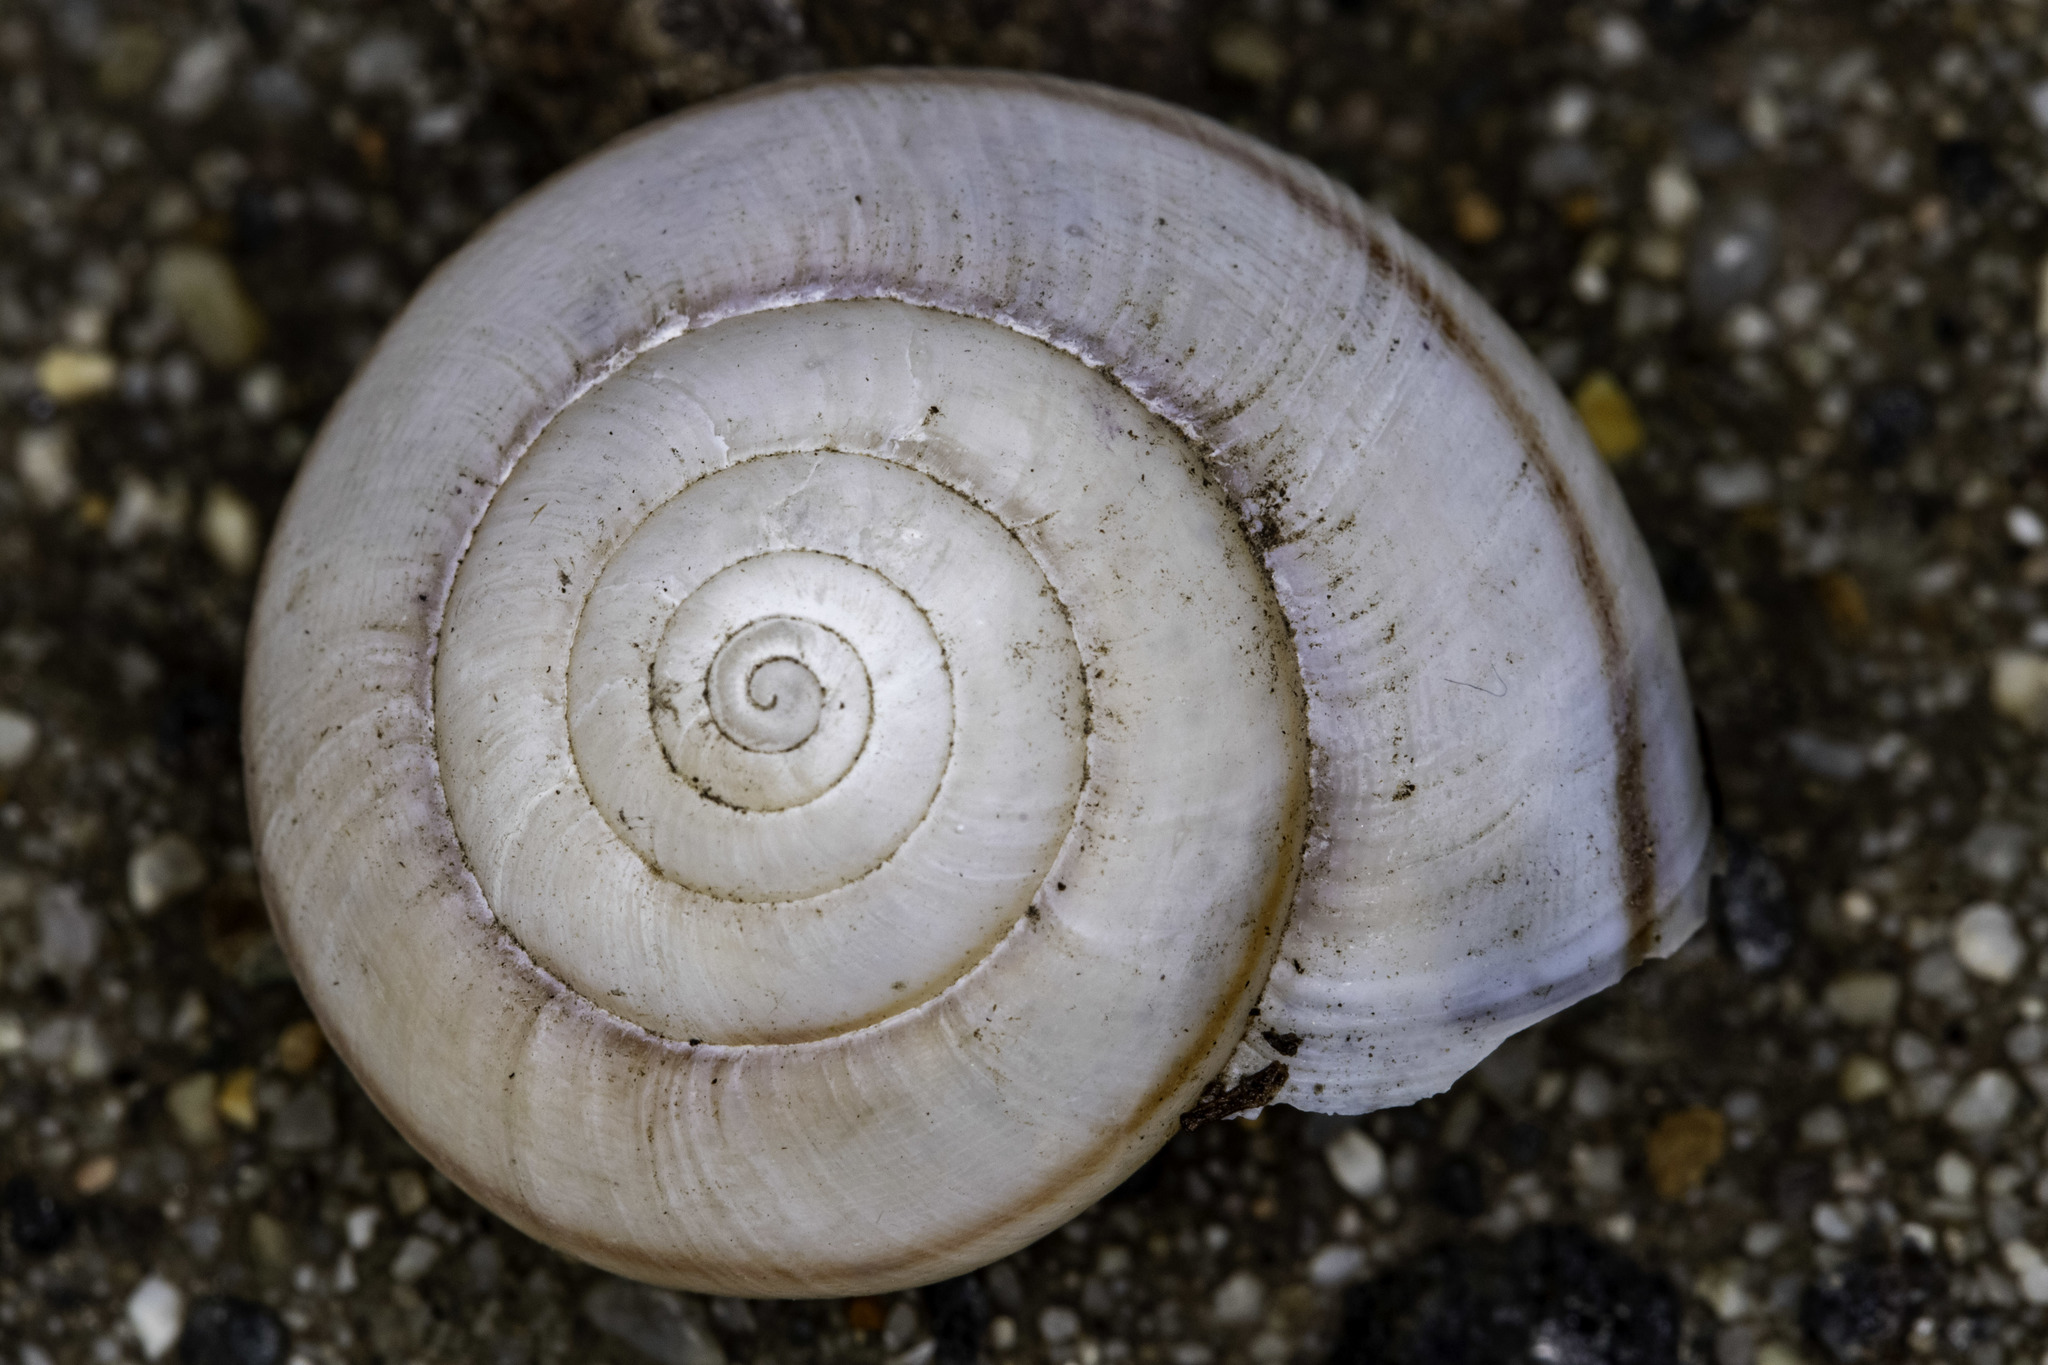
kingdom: Animalia
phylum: Mollusca
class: Gastropoda
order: Stylommatophora
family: Xanthonychidae
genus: Helminthoglypta
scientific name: Helminthoglypta traskii
